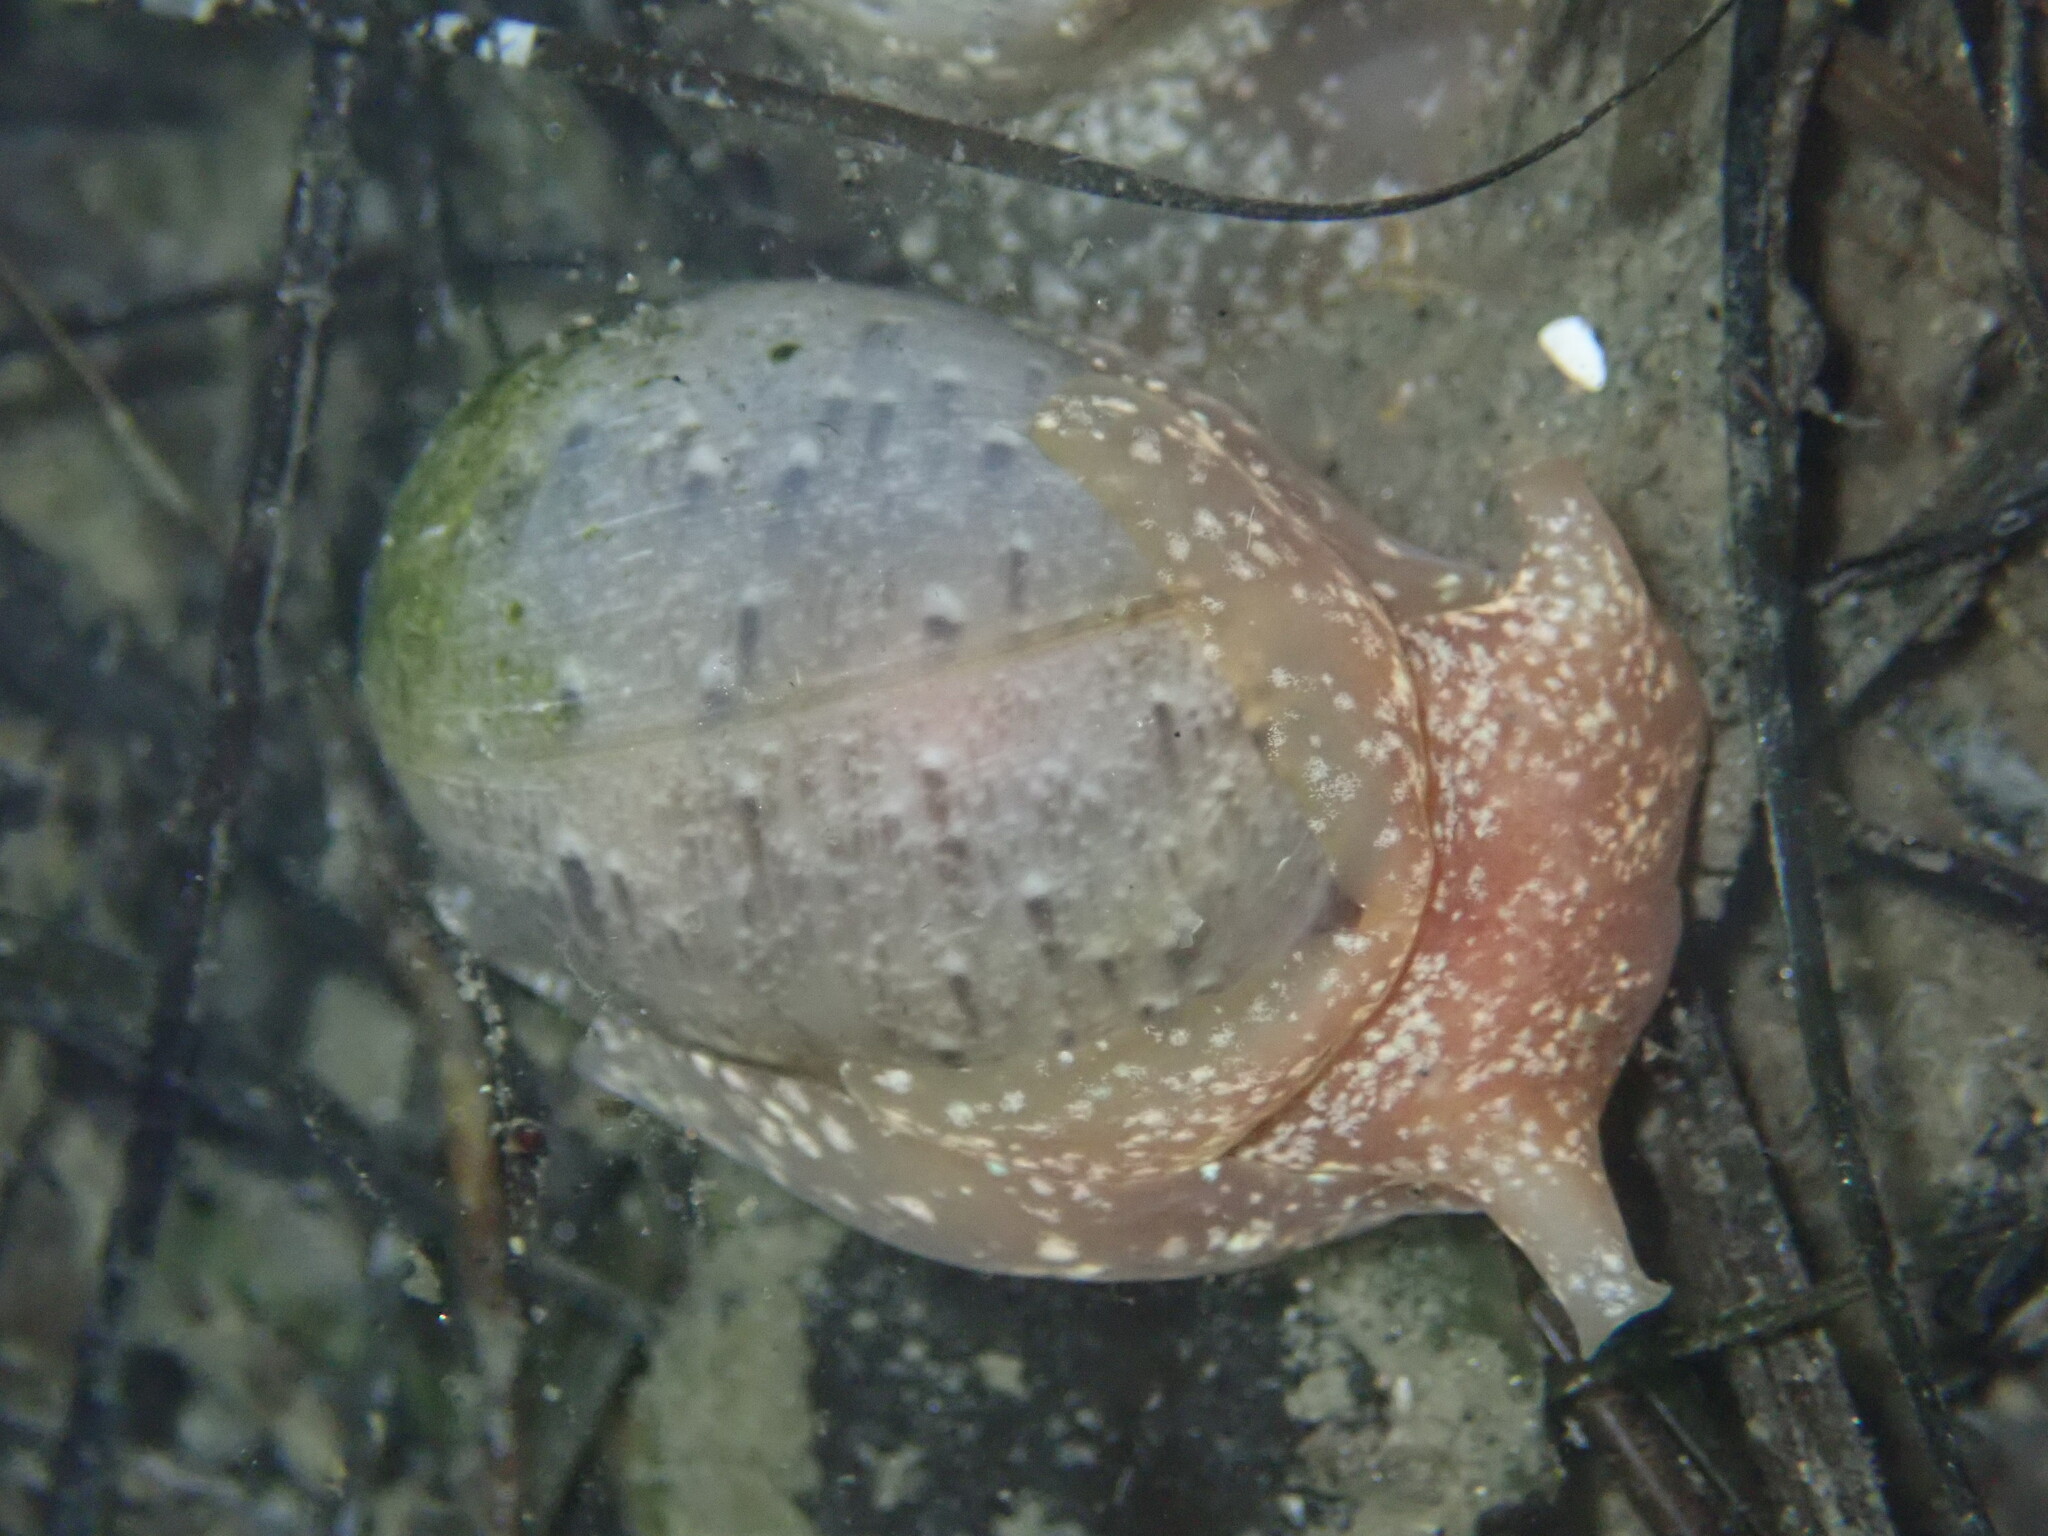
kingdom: Animalia
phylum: Mollusca
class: Gastropoda
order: Cephalaspidea
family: Bullidae
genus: Bulla
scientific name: Bulla gouldiana
